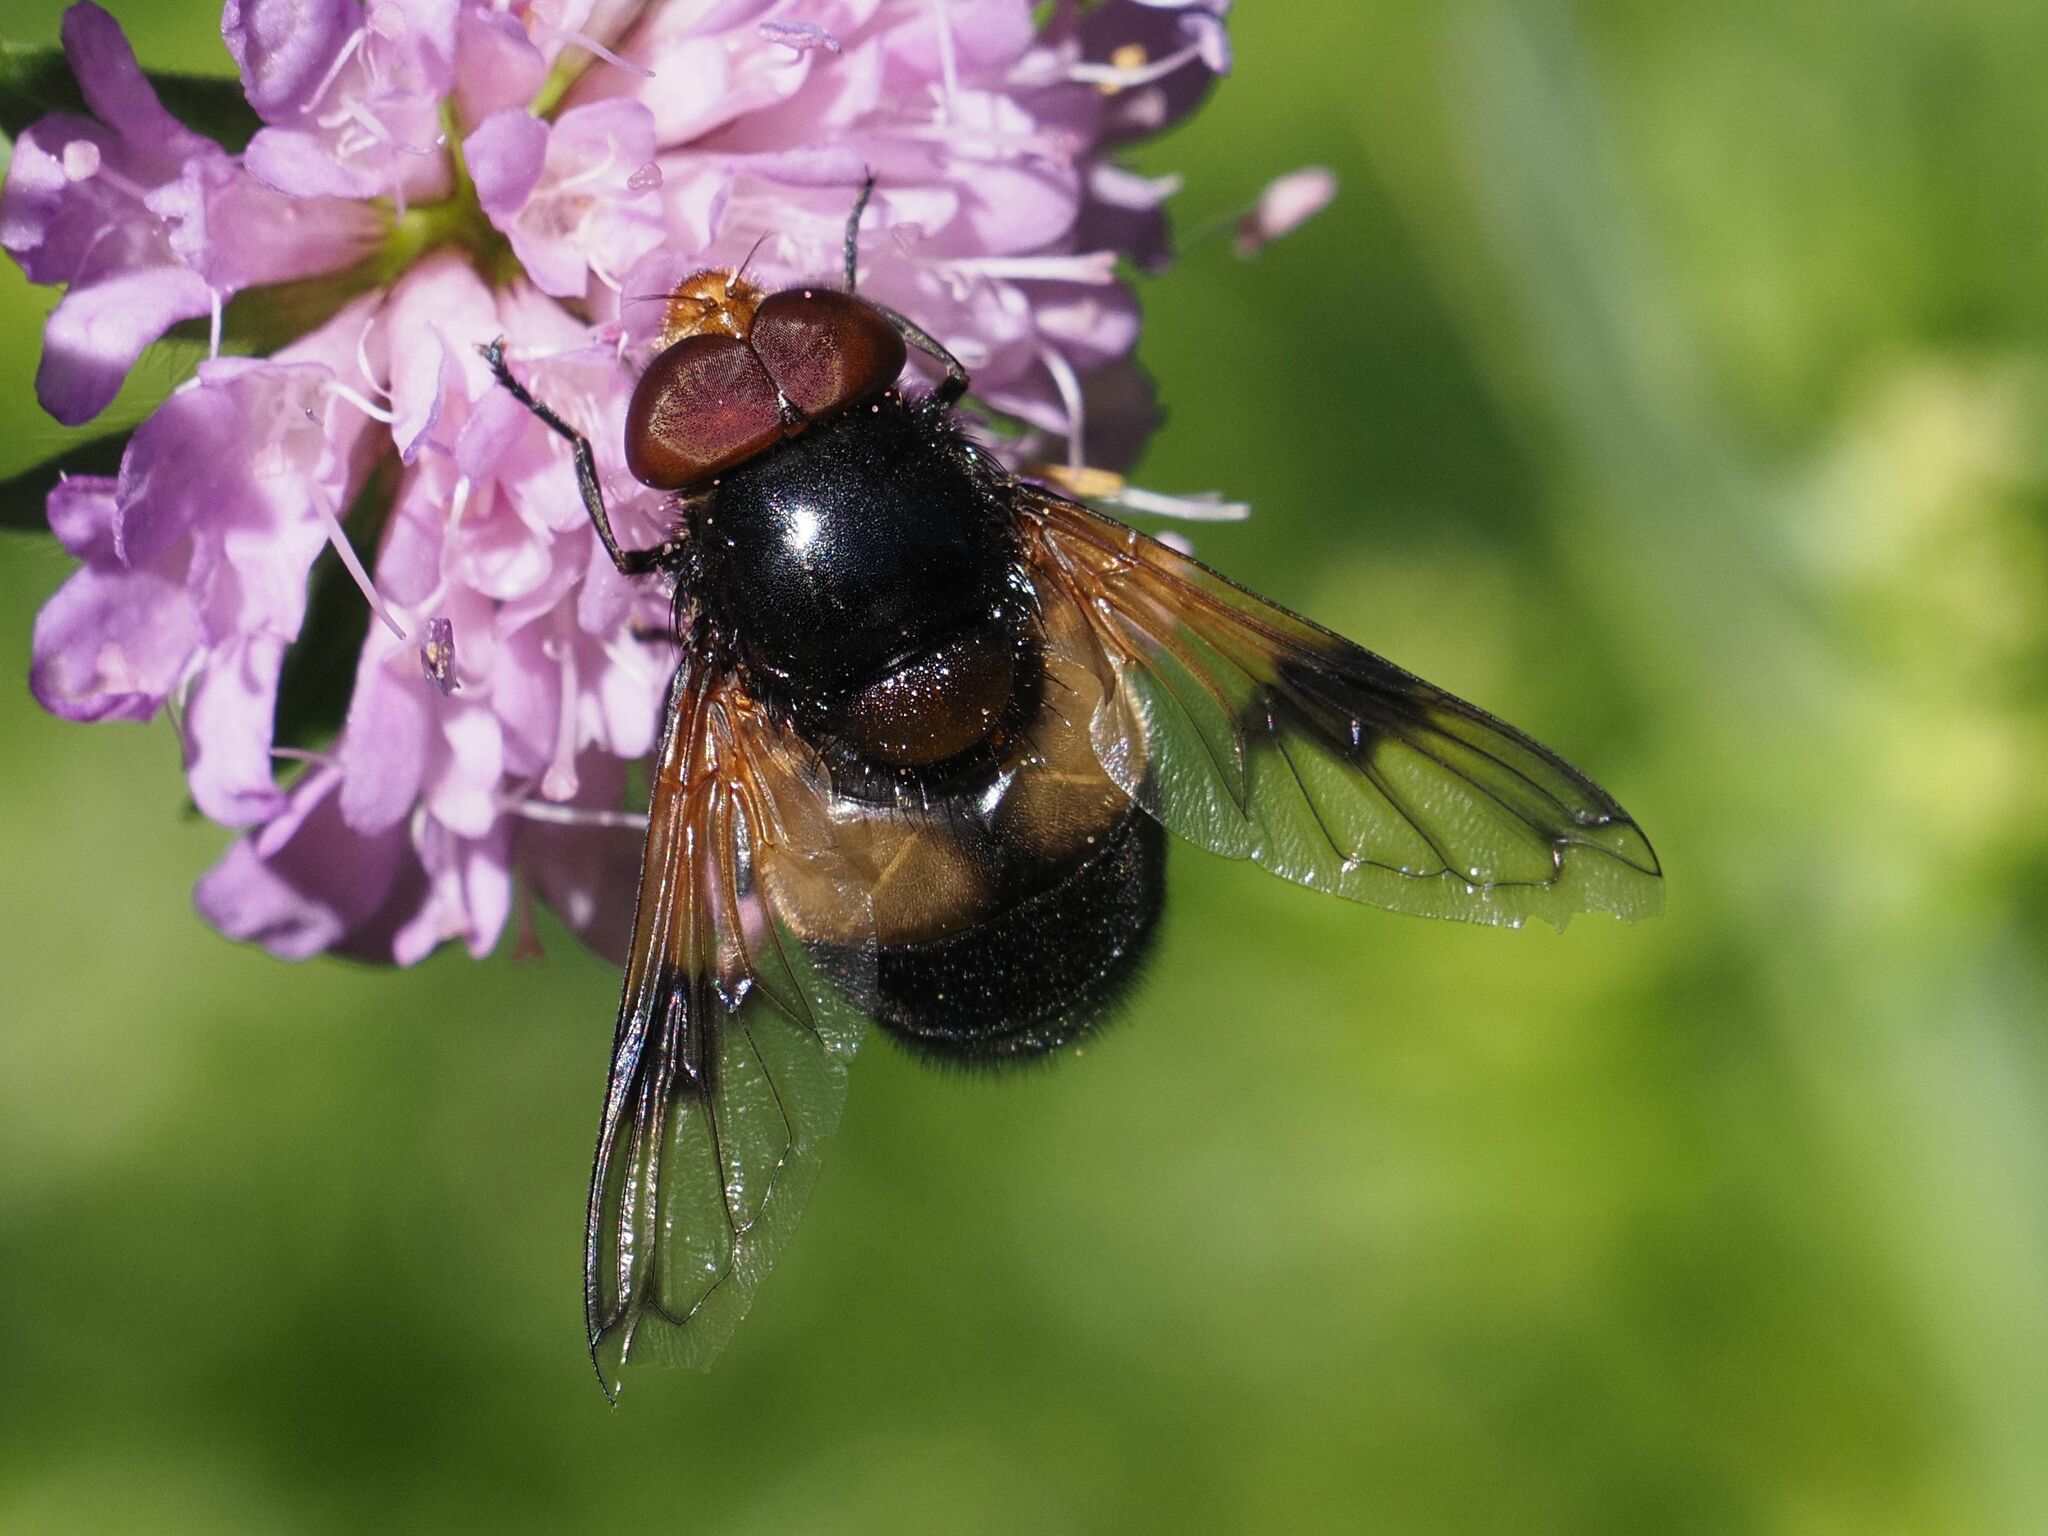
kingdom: Animalia
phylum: Arthropoda
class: Insecta
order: Diptera
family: Syrphidae
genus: Volucella
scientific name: Volucella pellucens
